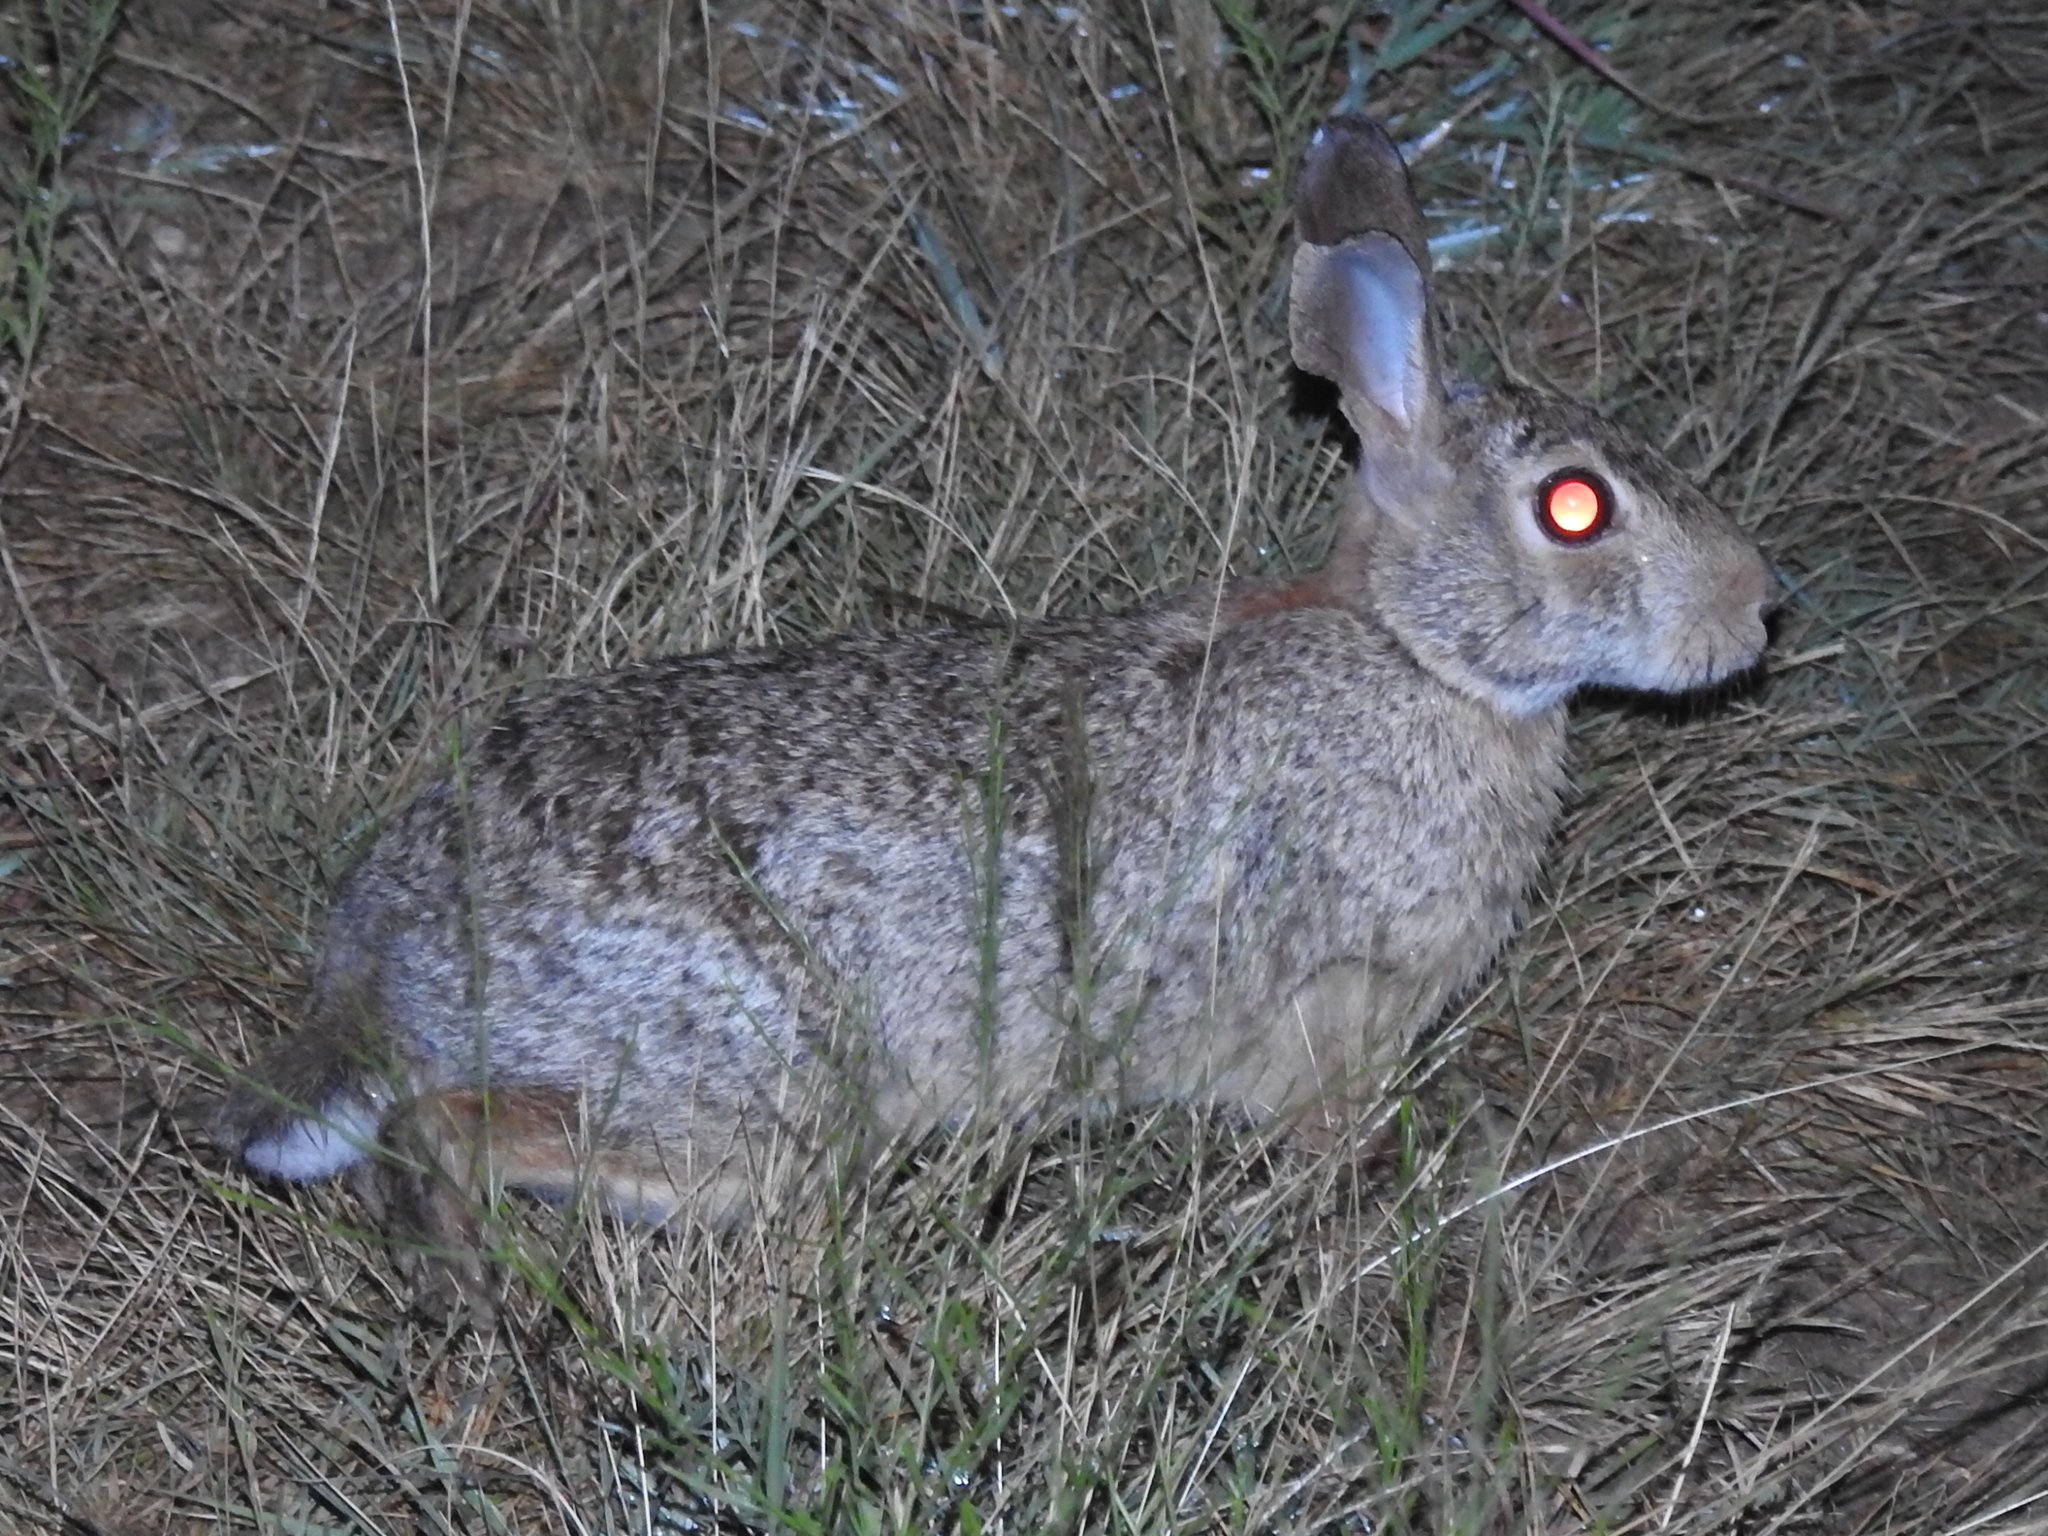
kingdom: Animalia
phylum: Chordata
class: Mammalia
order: Lagomorpha
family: Leporidae
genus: Sylvilagus
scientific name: Sylvilagus floridanus
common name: Eastern cottontail
